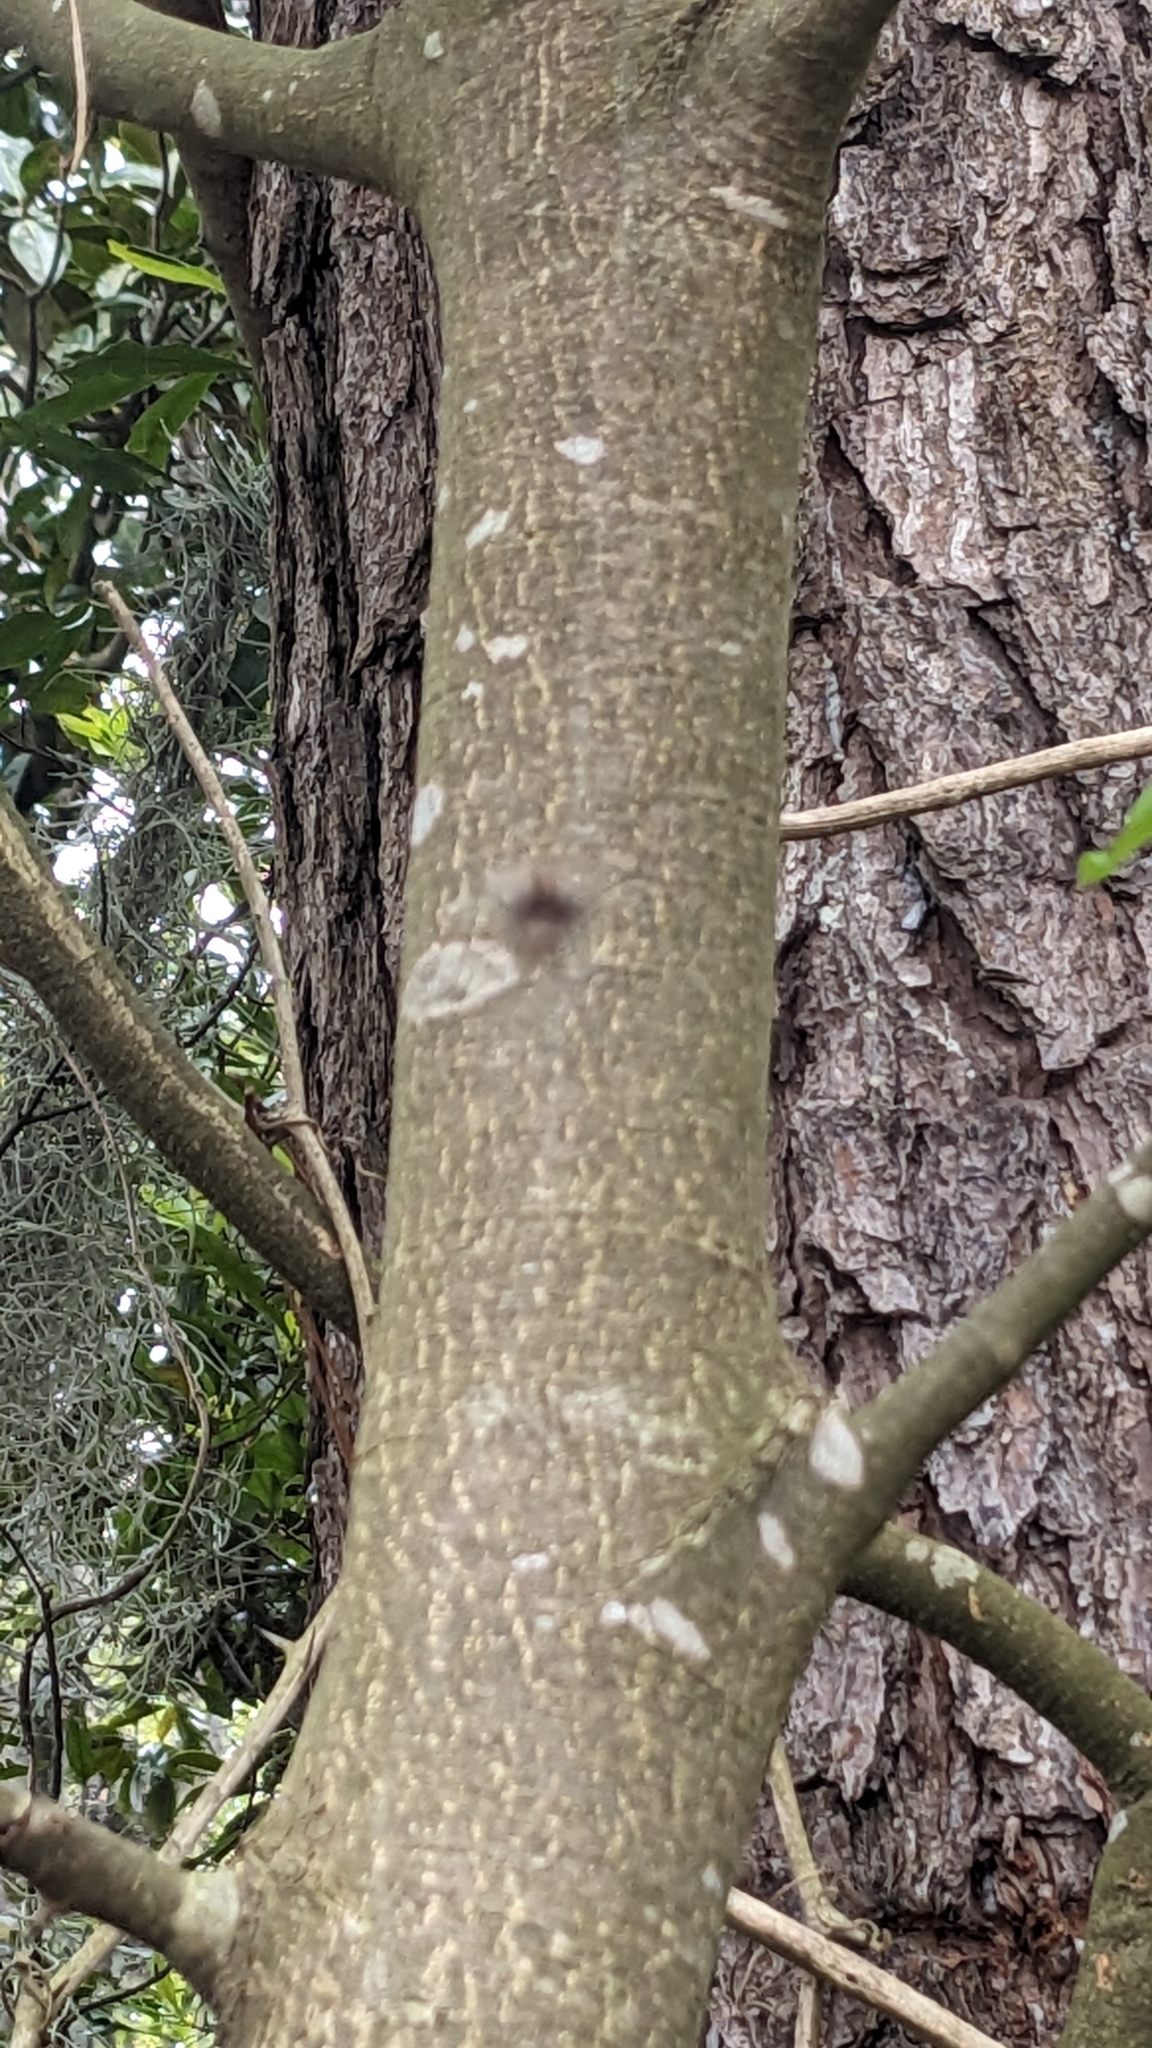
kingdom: Plantae
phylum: Tracheophyta
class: Magnoliopsida
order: Rosales
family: Rosaceae
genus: Pyrus
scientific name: Pyrus calleryana
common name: Callery pear
